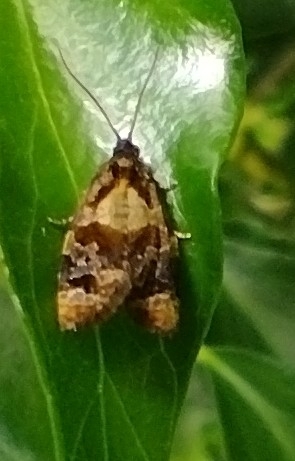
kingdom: Animalia
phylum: Arthropoda
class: Insecta
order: Lepidoptera
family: Tortricidae
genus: Ditula
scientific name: Ditula angustiorana
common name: Red-barred tortrix
